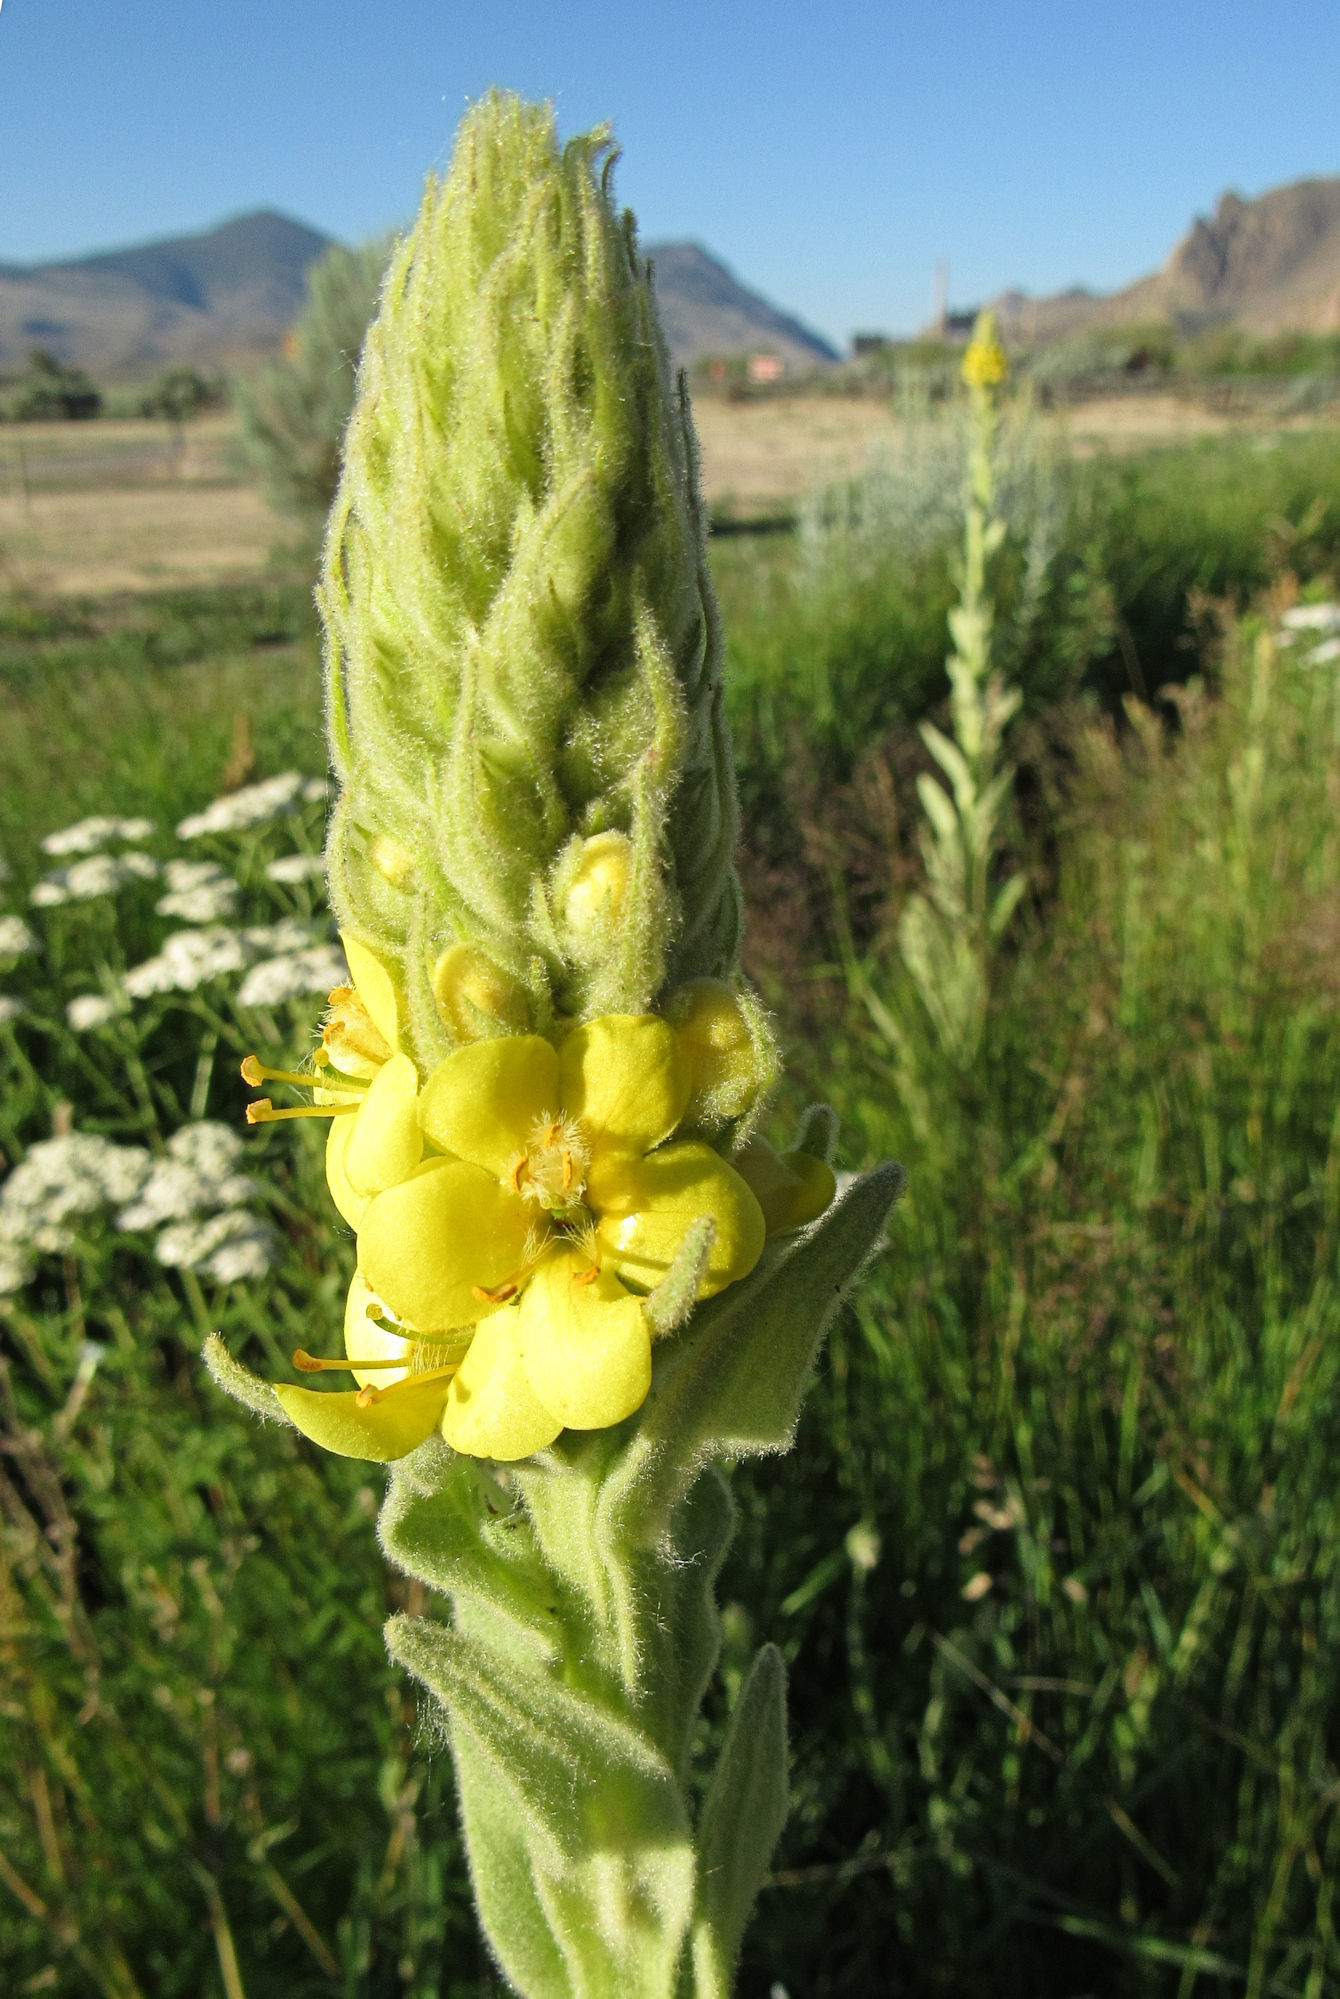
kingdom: Plantae
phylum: Tracheophyta
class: Magnoliopsida
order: Lamiales
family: Scrophulariaceae
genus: Verbascum
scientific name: Verbascum thapsus
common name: Common mullein
